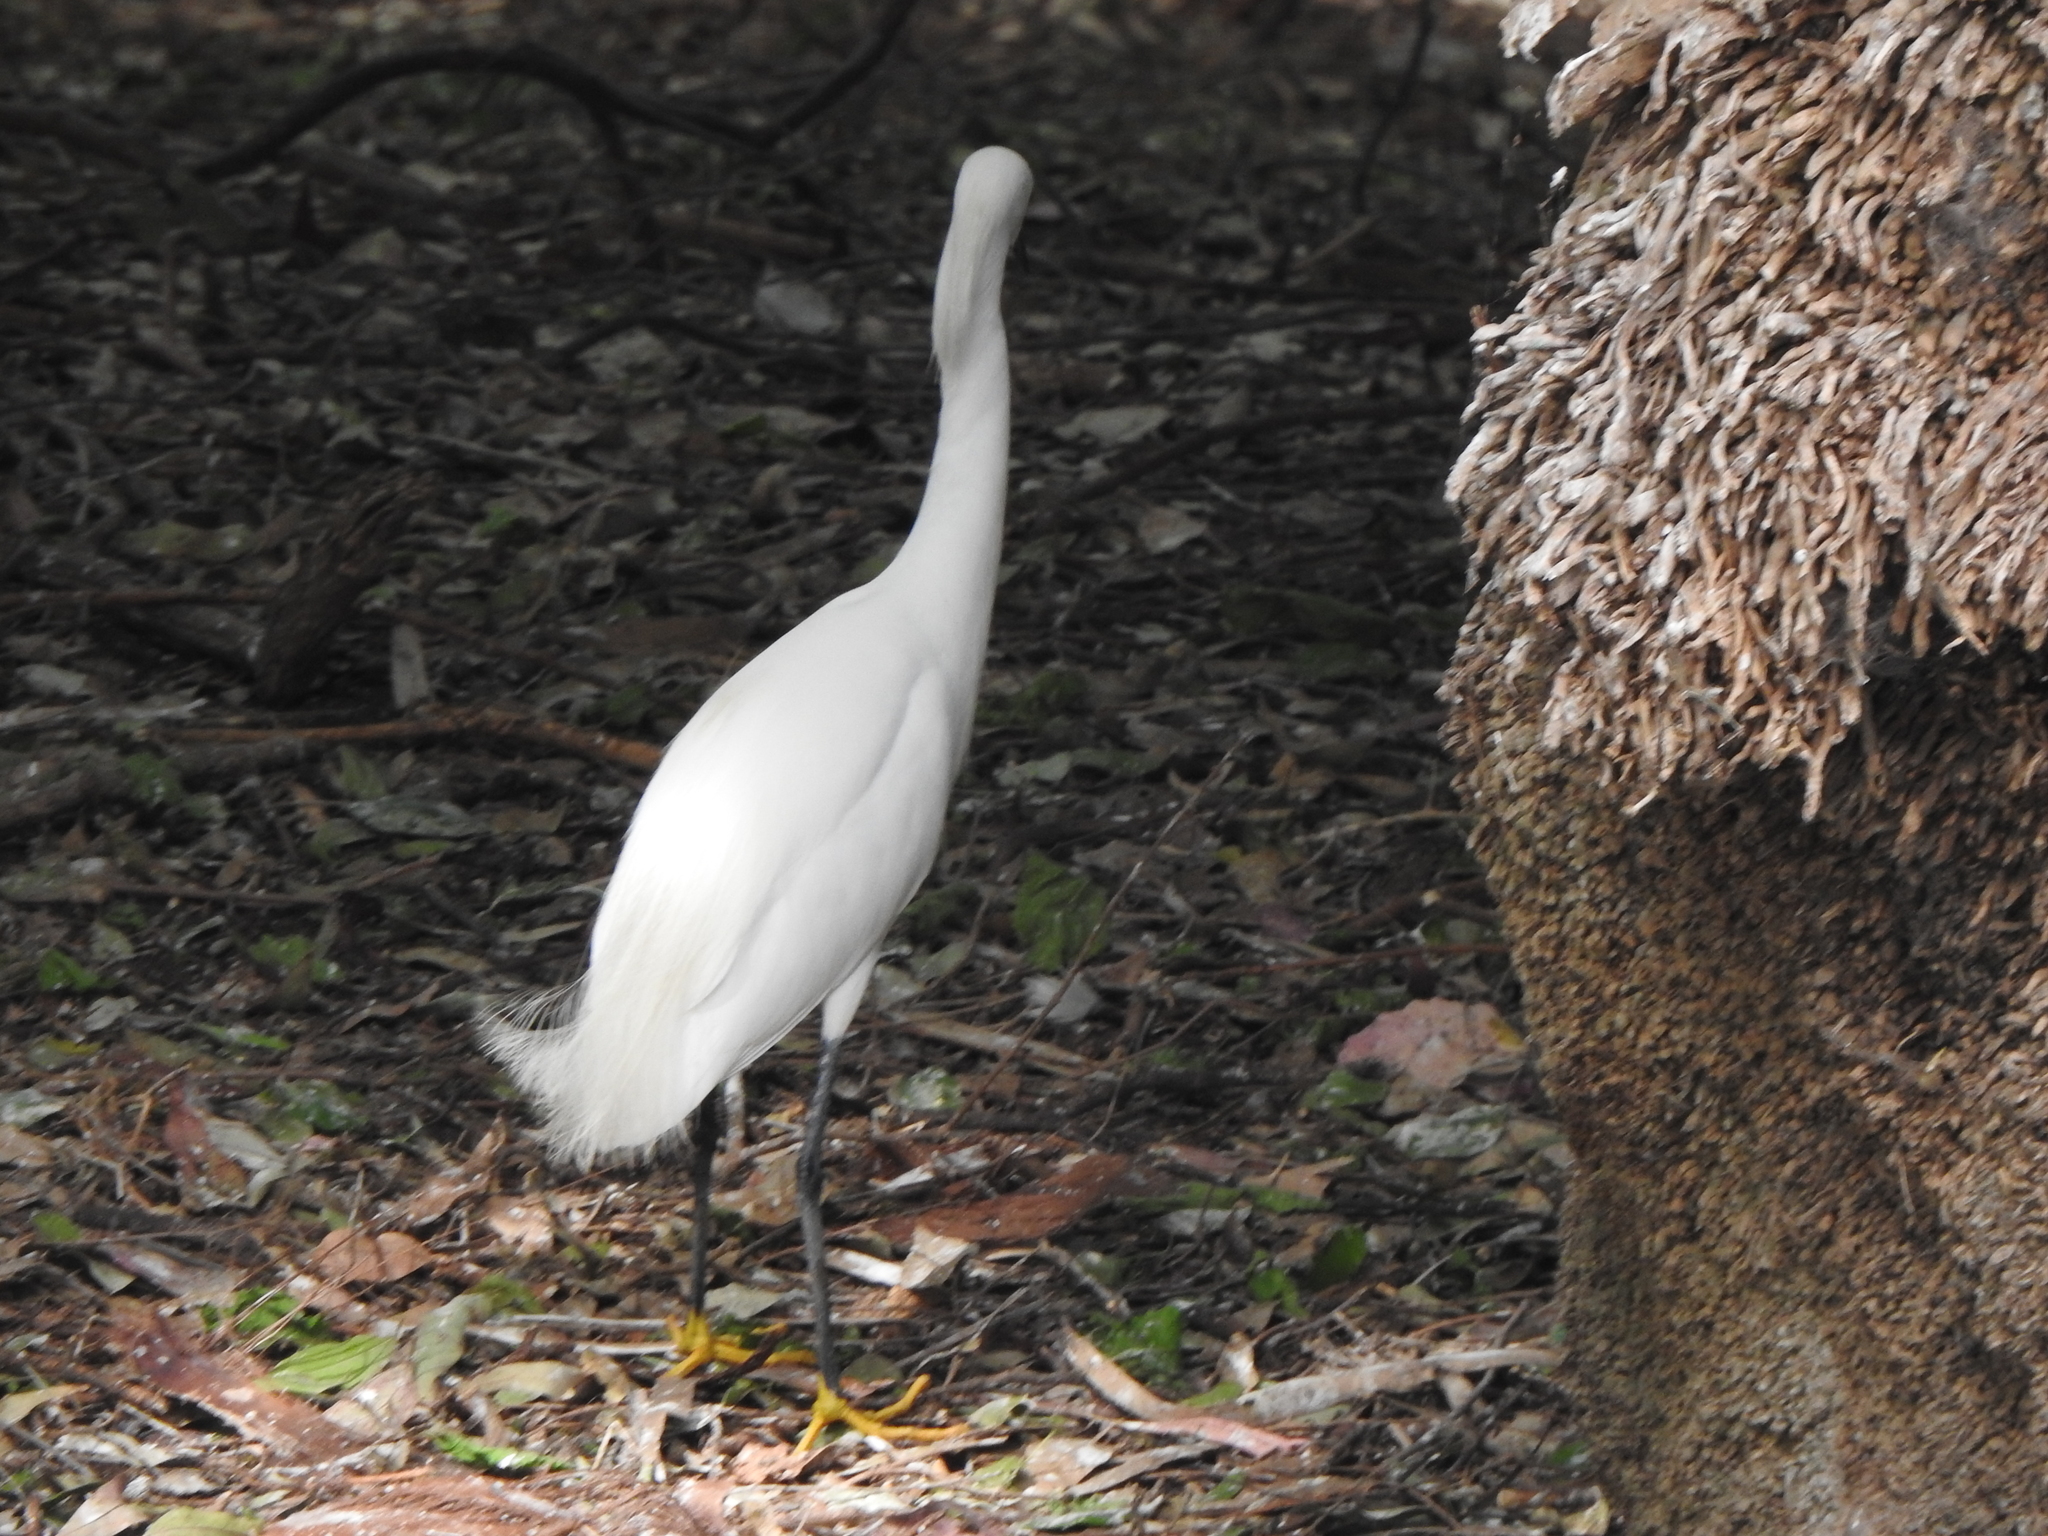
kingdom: Animalia
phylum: Chordata
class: Aves
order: Pelecaniformes
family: Ardeidae
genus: Egretta
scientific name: Egretta thula
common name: Snowy egret
